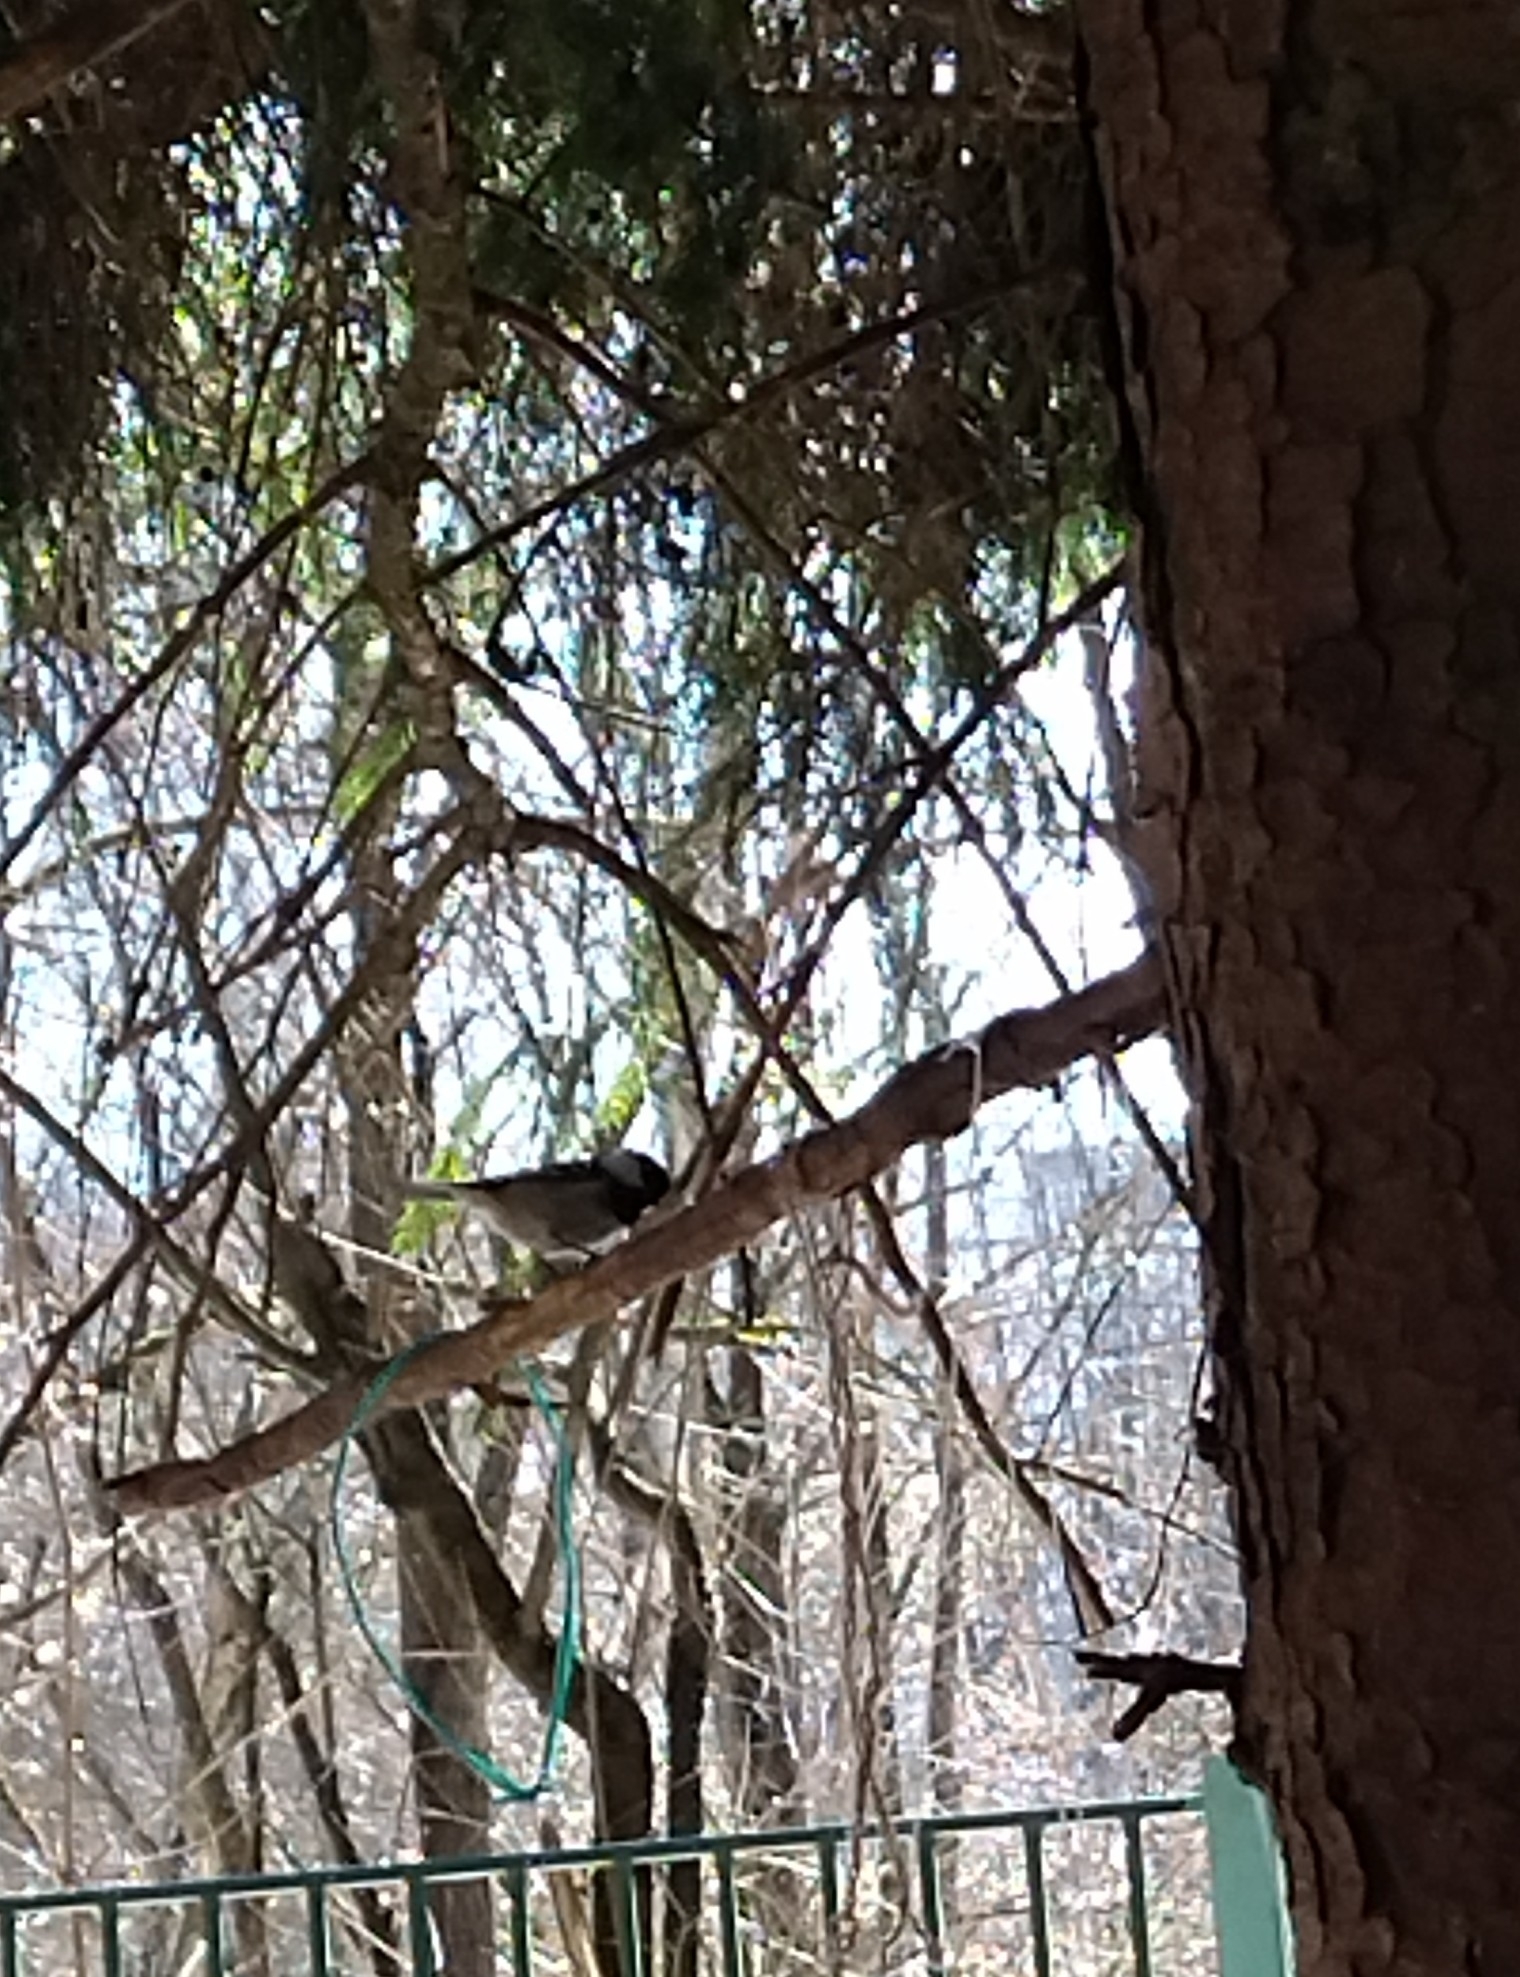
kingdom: Animalia
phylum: Chordata
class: Aves
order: Passeriformes
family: Paridae
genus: Periparus
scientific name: Periparus ater
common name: Coal tit
